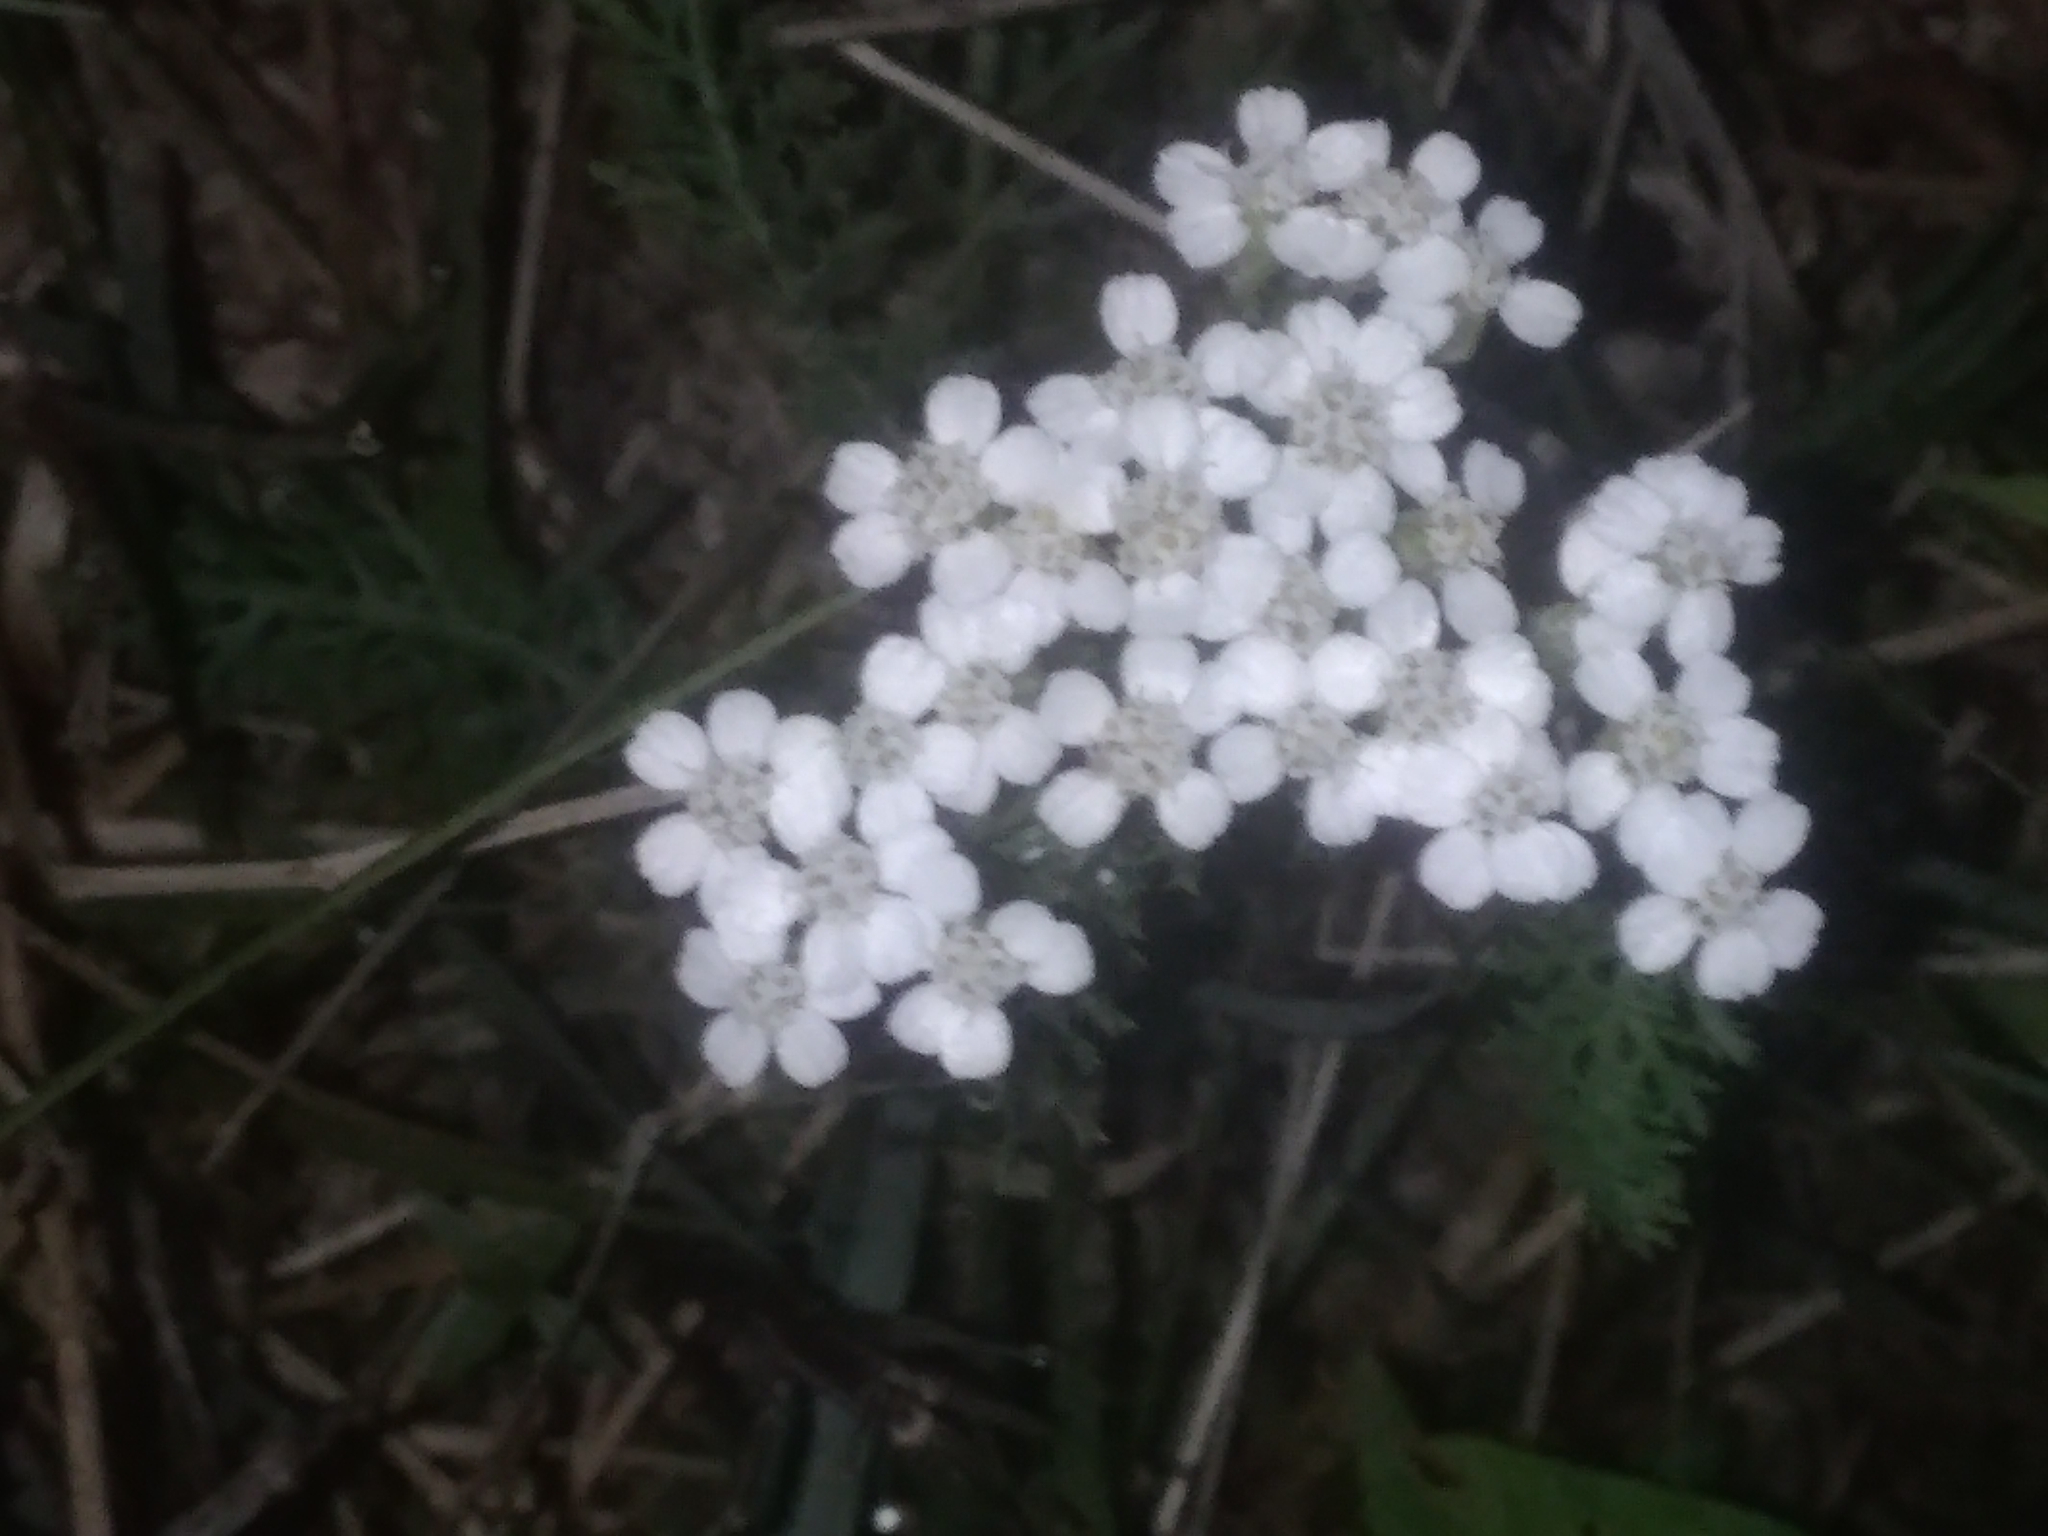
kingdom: Plantae
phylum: Tracheophyta
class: Magnoliopsida
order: Asterales
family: Asteraceae
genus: Achillea
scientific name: Achillea millefolium
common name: Yarrow
